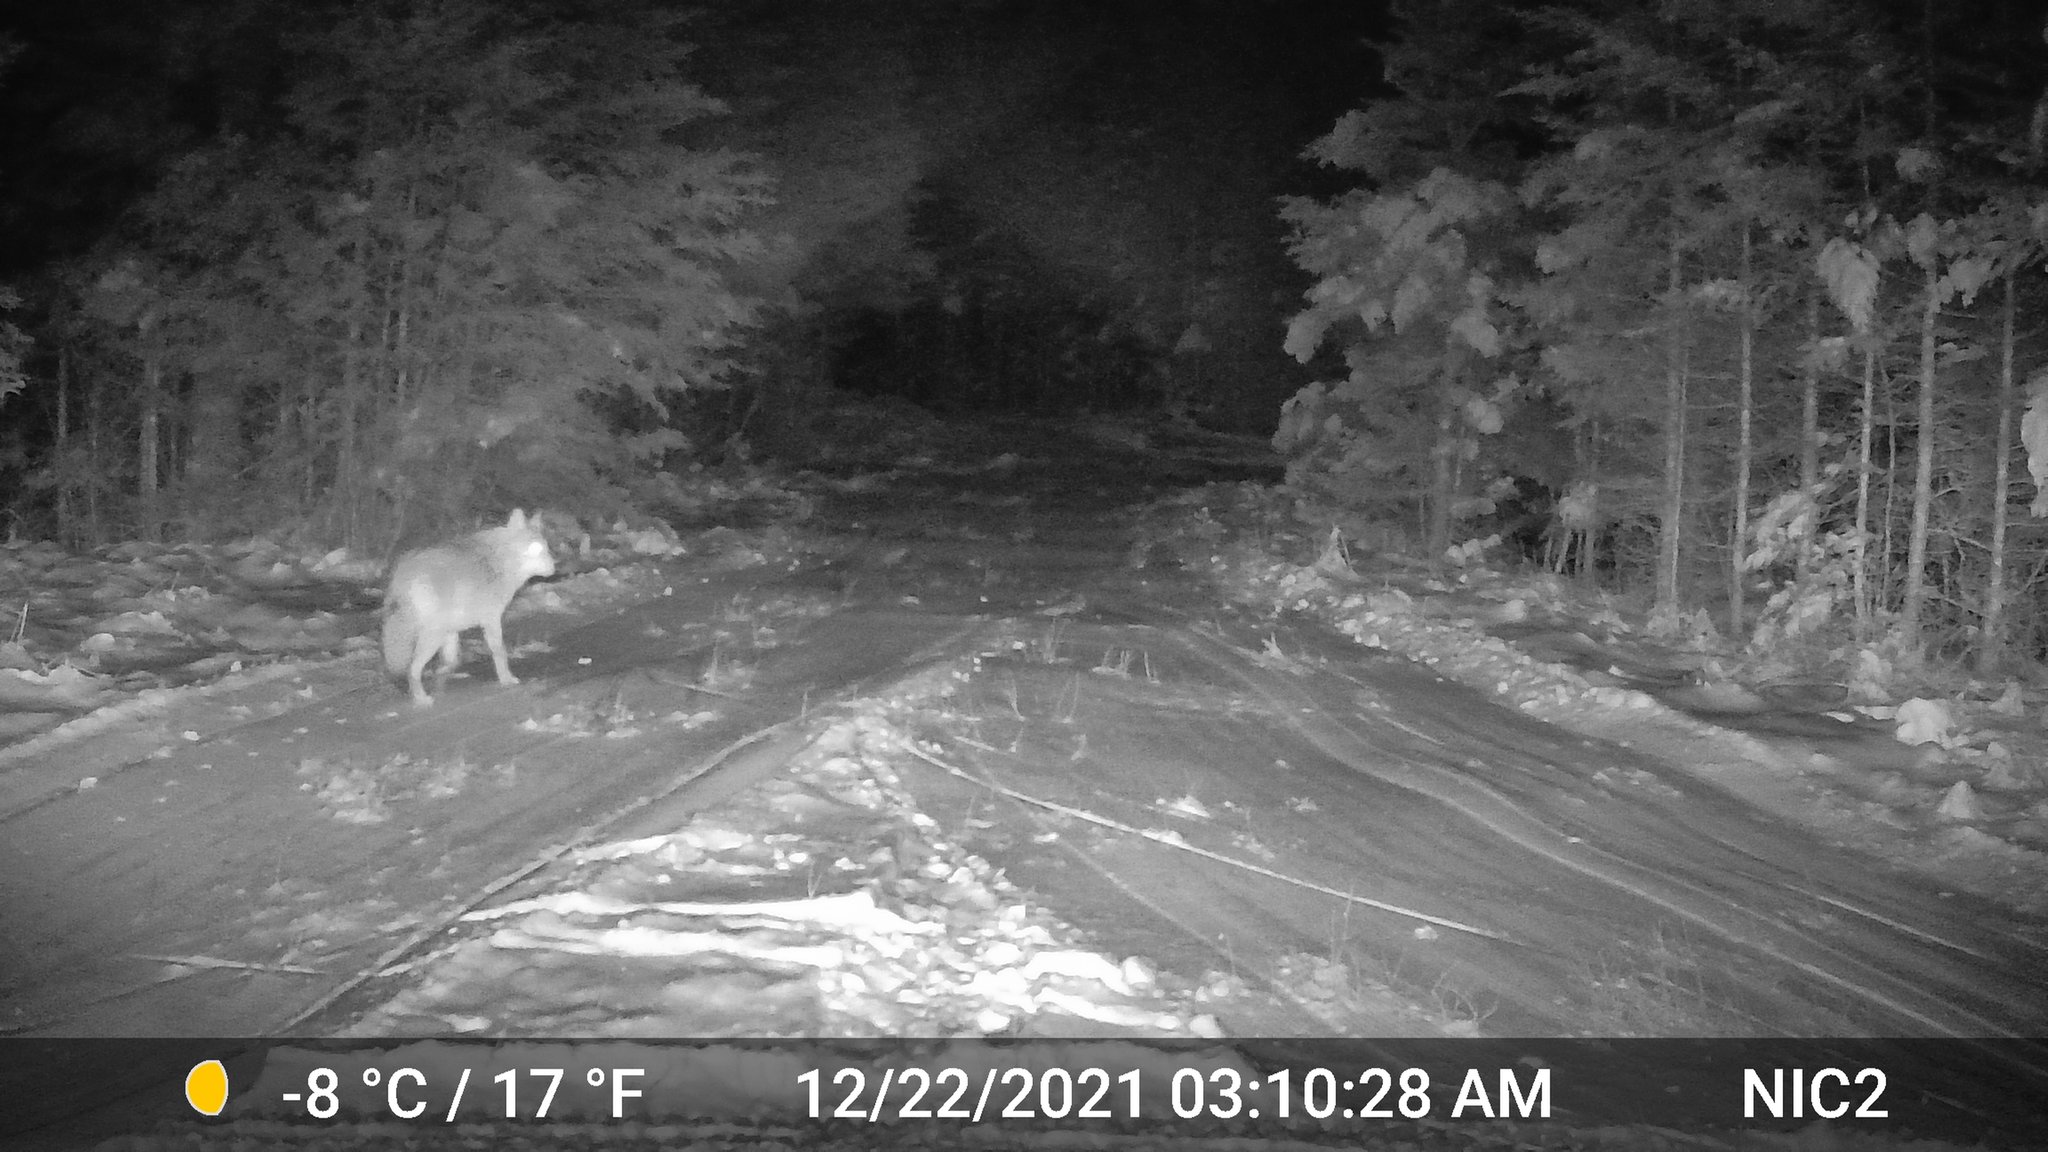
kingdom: Animalia
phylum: Chordata
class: Mammalia
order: Carnivora
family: Canidae
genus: Canis
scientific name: Canis latrans
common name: Coyote
